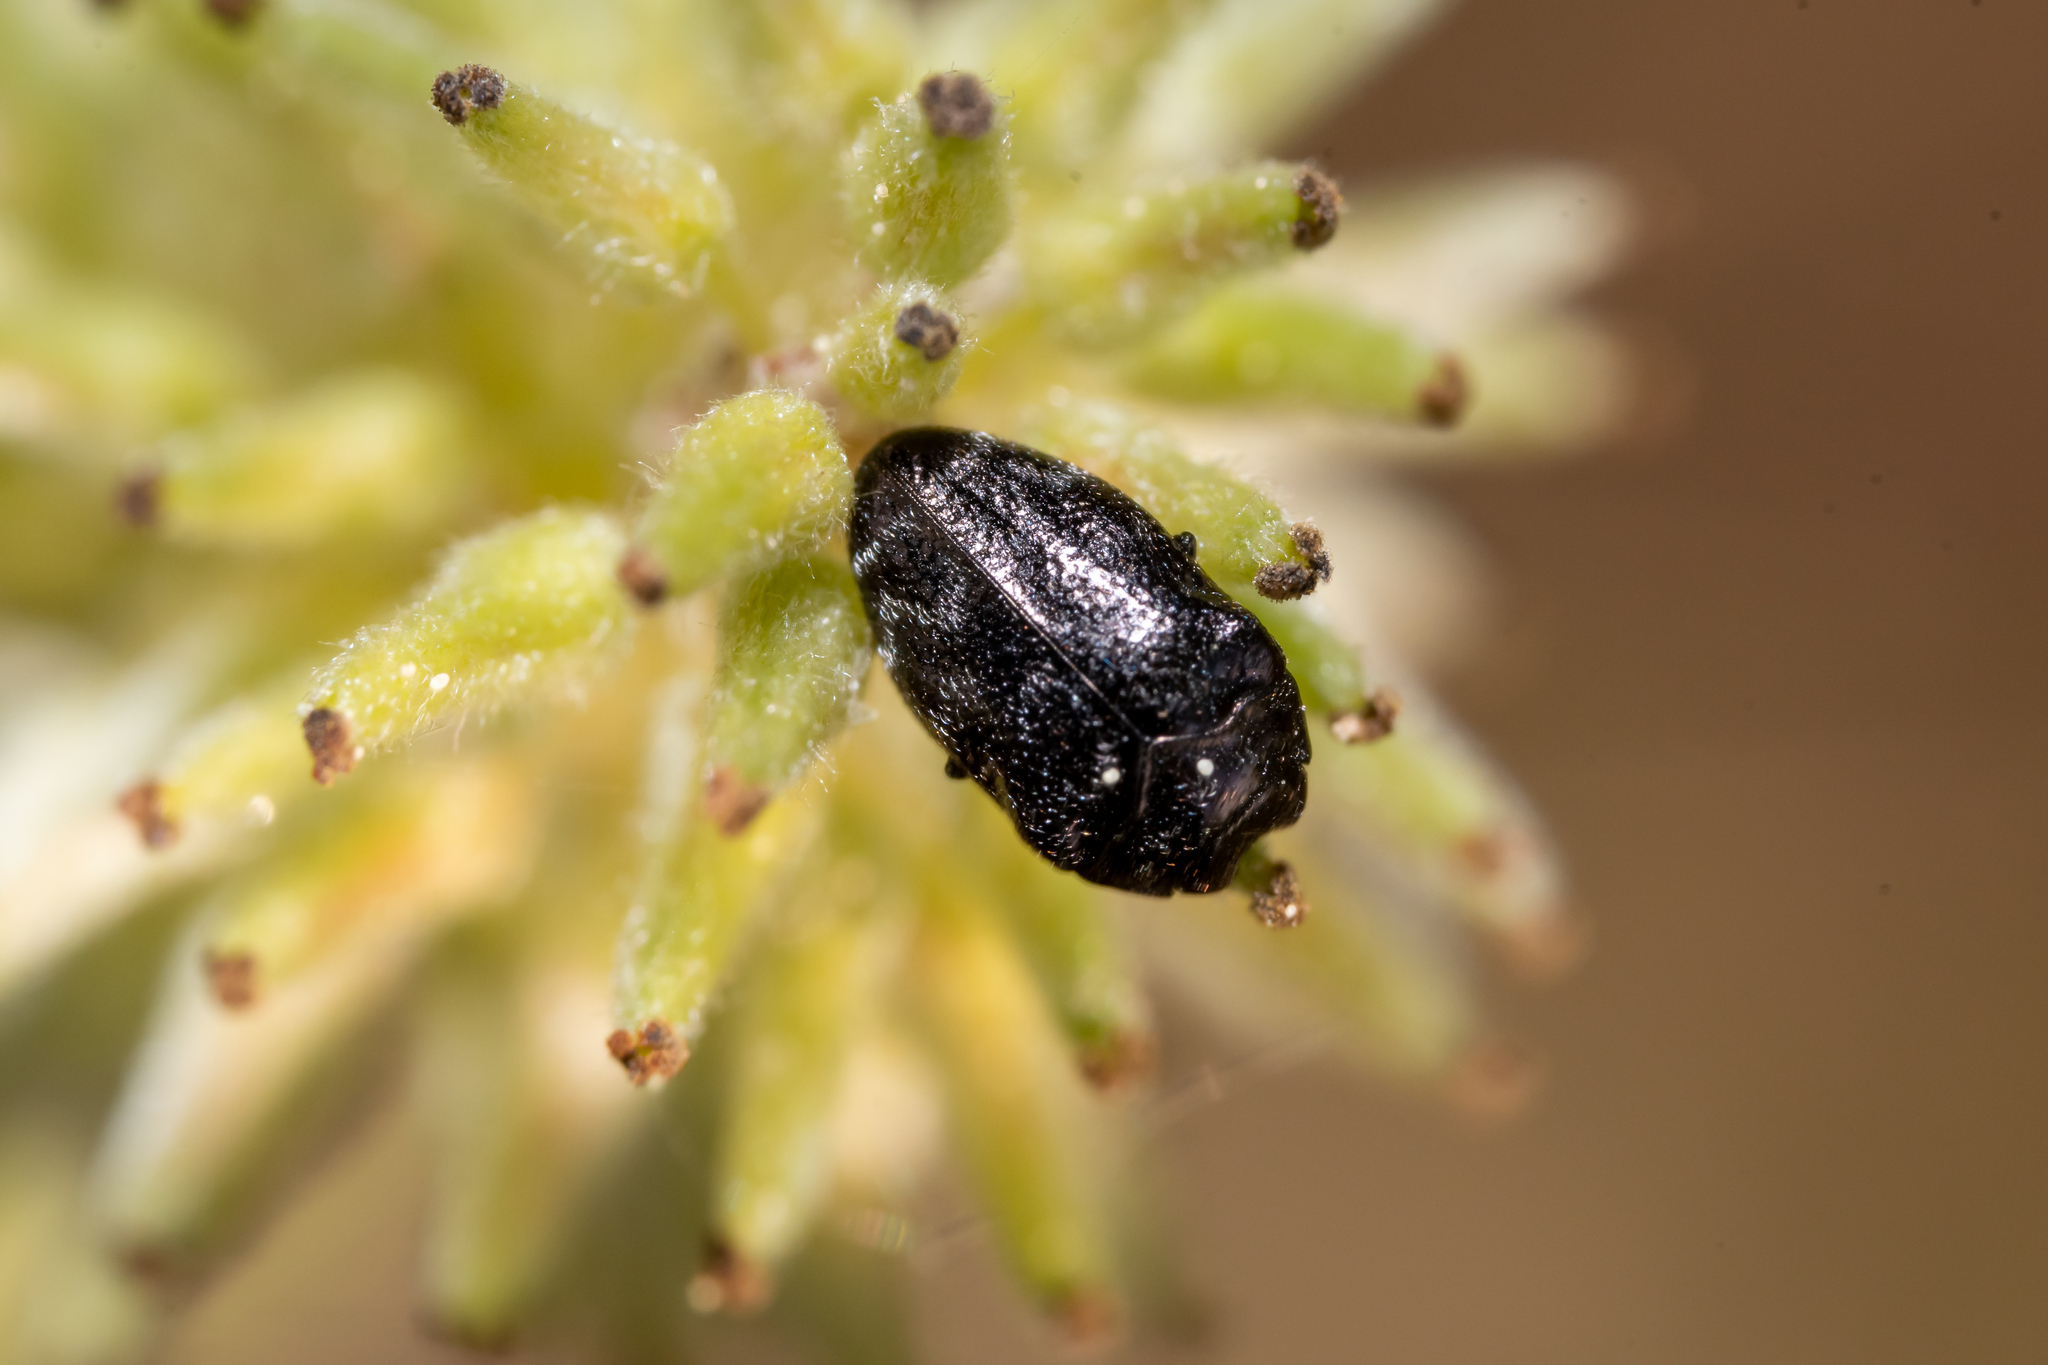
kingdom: Animalia
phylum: Arthropoda
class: Insecta
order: Coleoptera
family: Buprestidae
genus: Trachys
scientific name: Trachys minutus
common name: Metallic wood-boring beetle
